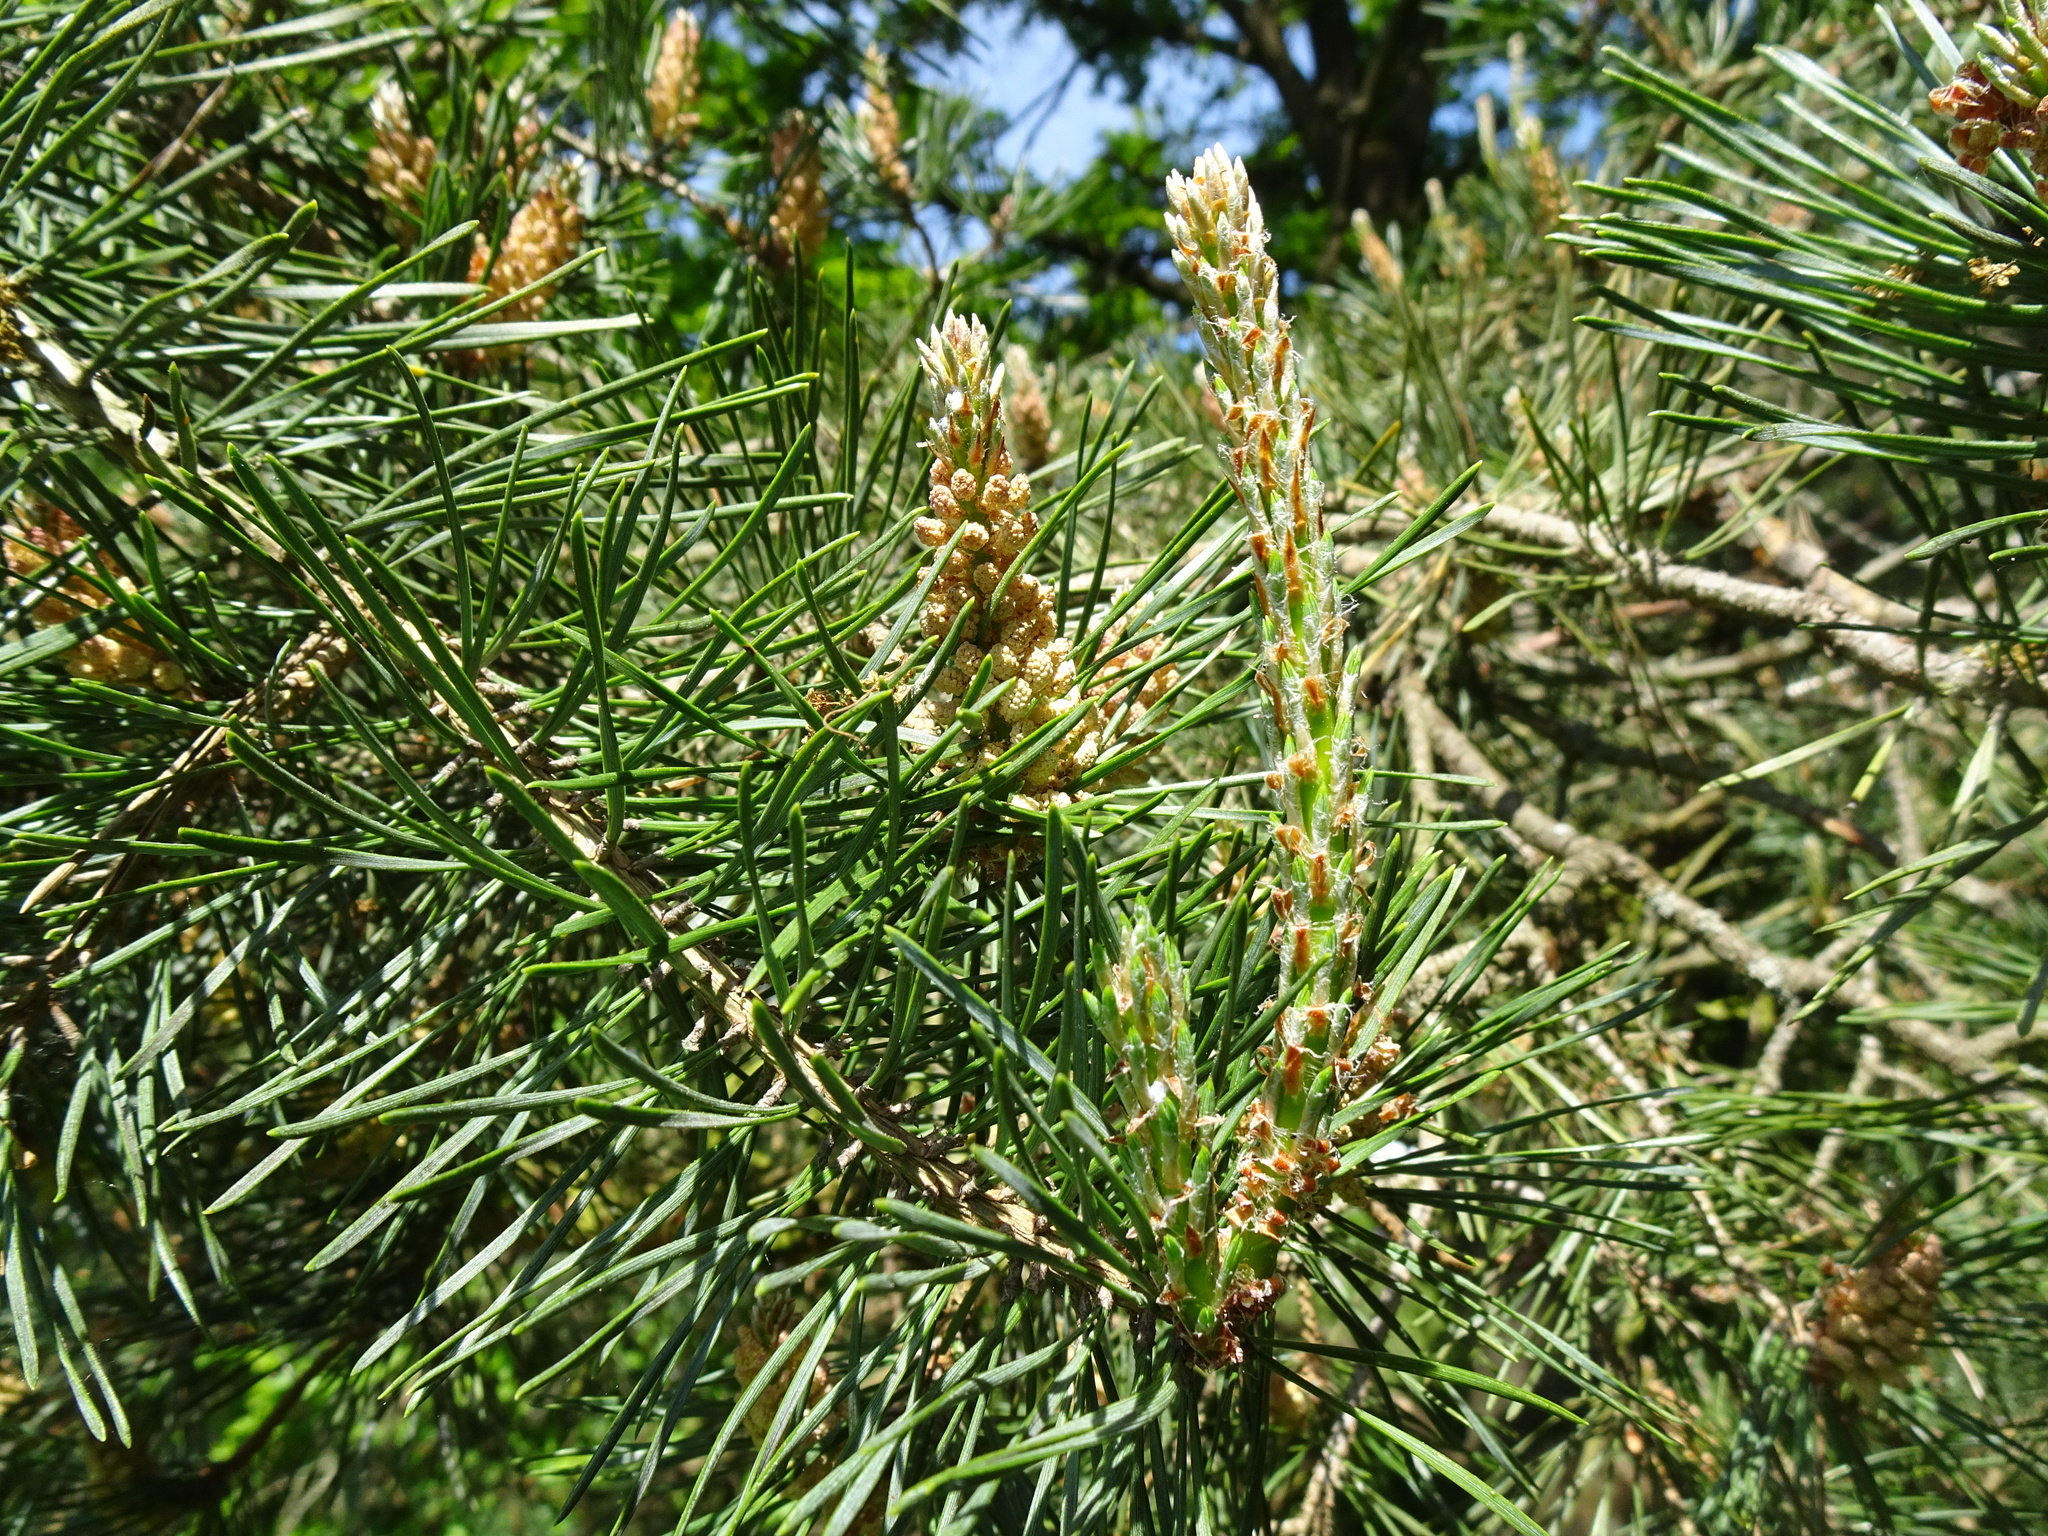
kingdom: Plantae
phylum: Tracheophyta
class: Pinopsida
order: Pinales
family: Pinaceae
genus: Pinus
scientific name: Pinus sylvestris
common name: Scots pine
